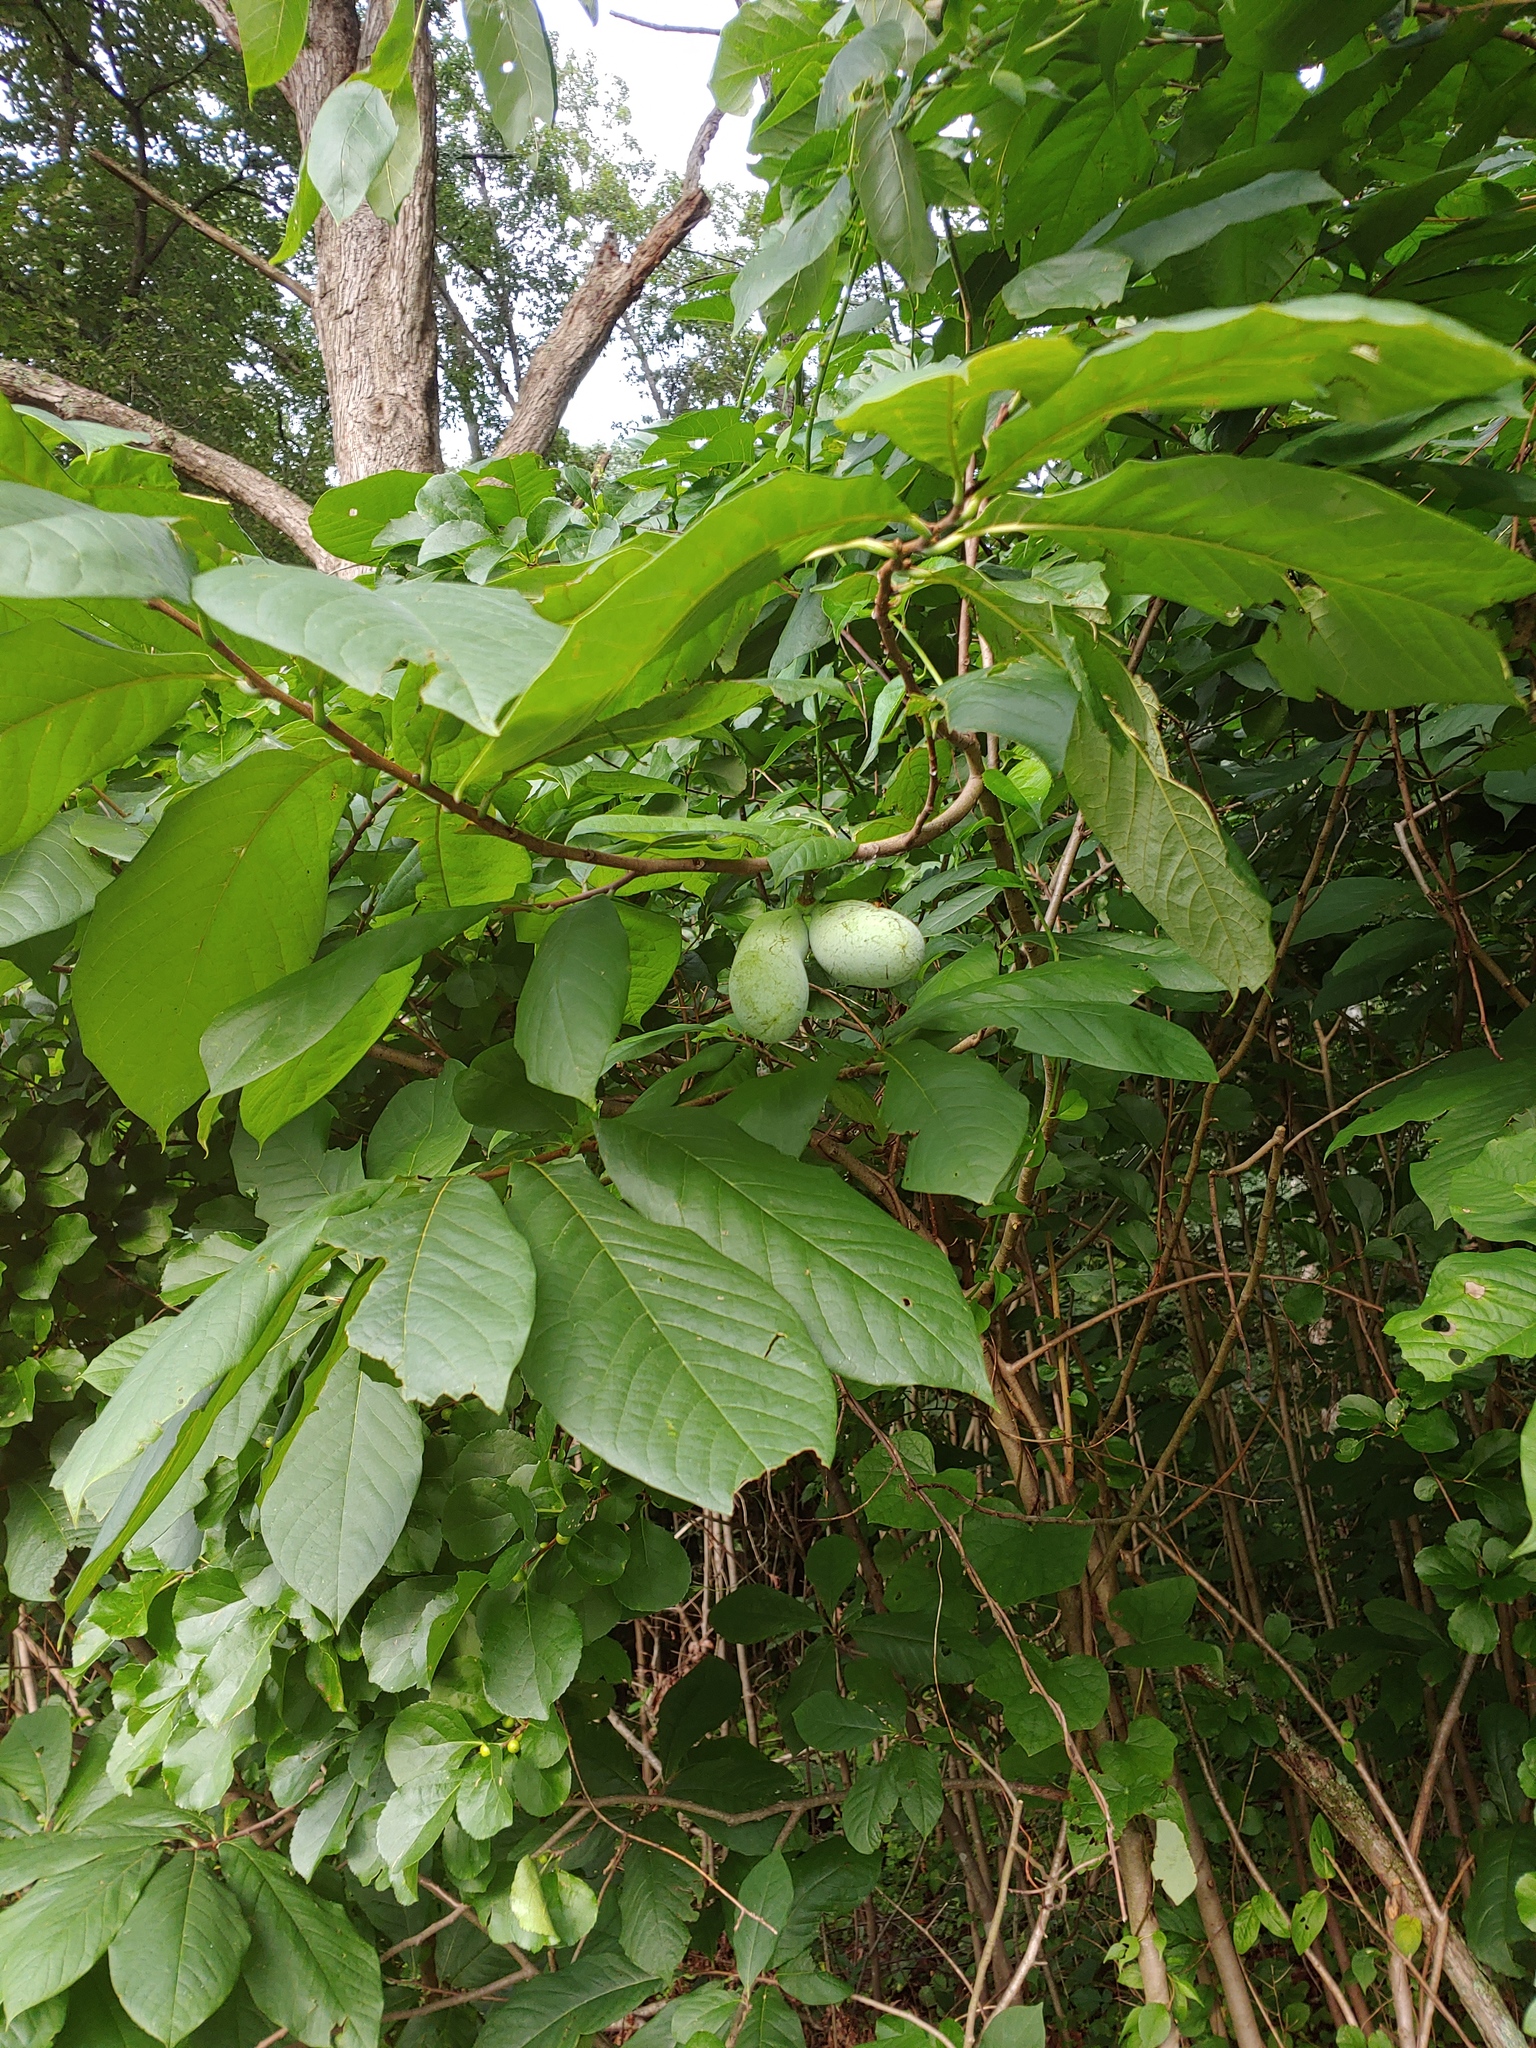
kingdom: Plantae
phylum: Tracheophyta
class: Magnoliopsida
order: Magnoliales
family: Annonaceae
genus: Asimina
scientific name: Asimina triloba
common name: Dog-banana
